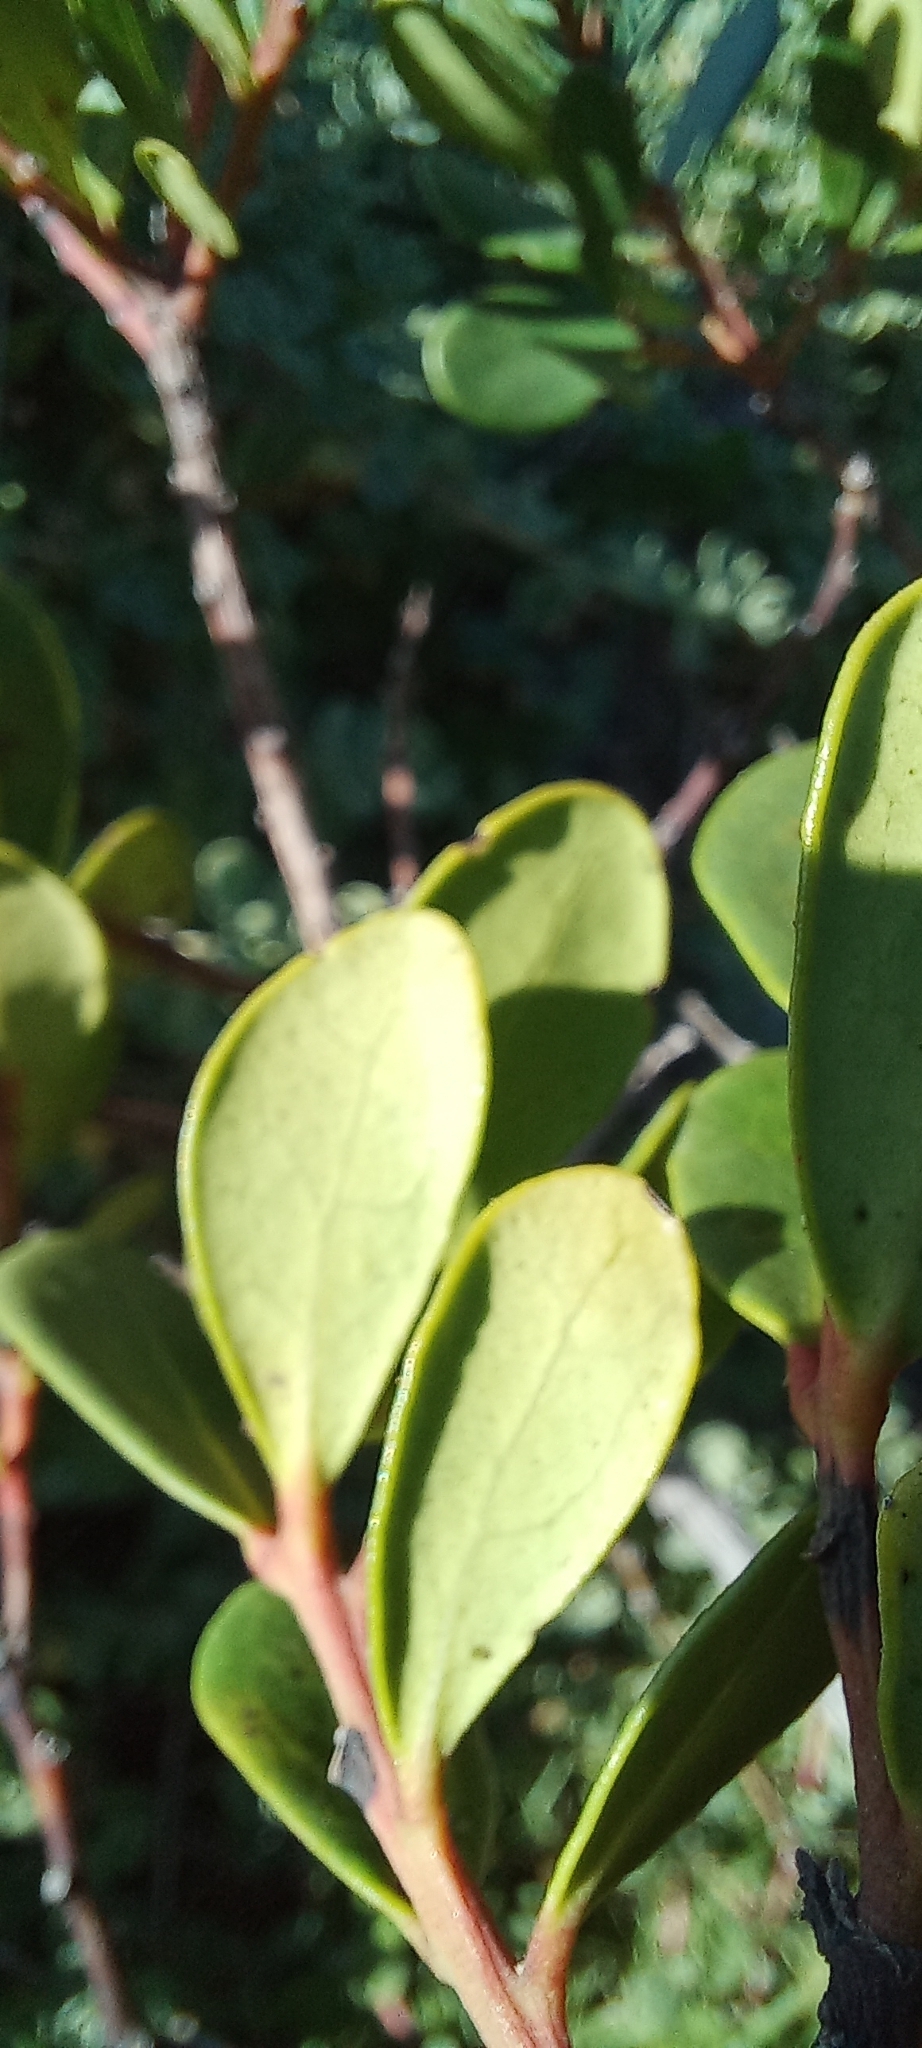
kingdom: Plantae
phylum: Tracheophyta
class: Magnoliopsida
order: Ericales
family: Ebenaceae
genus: Euclea
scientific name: Euclea racemosa
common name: Dune guarri
